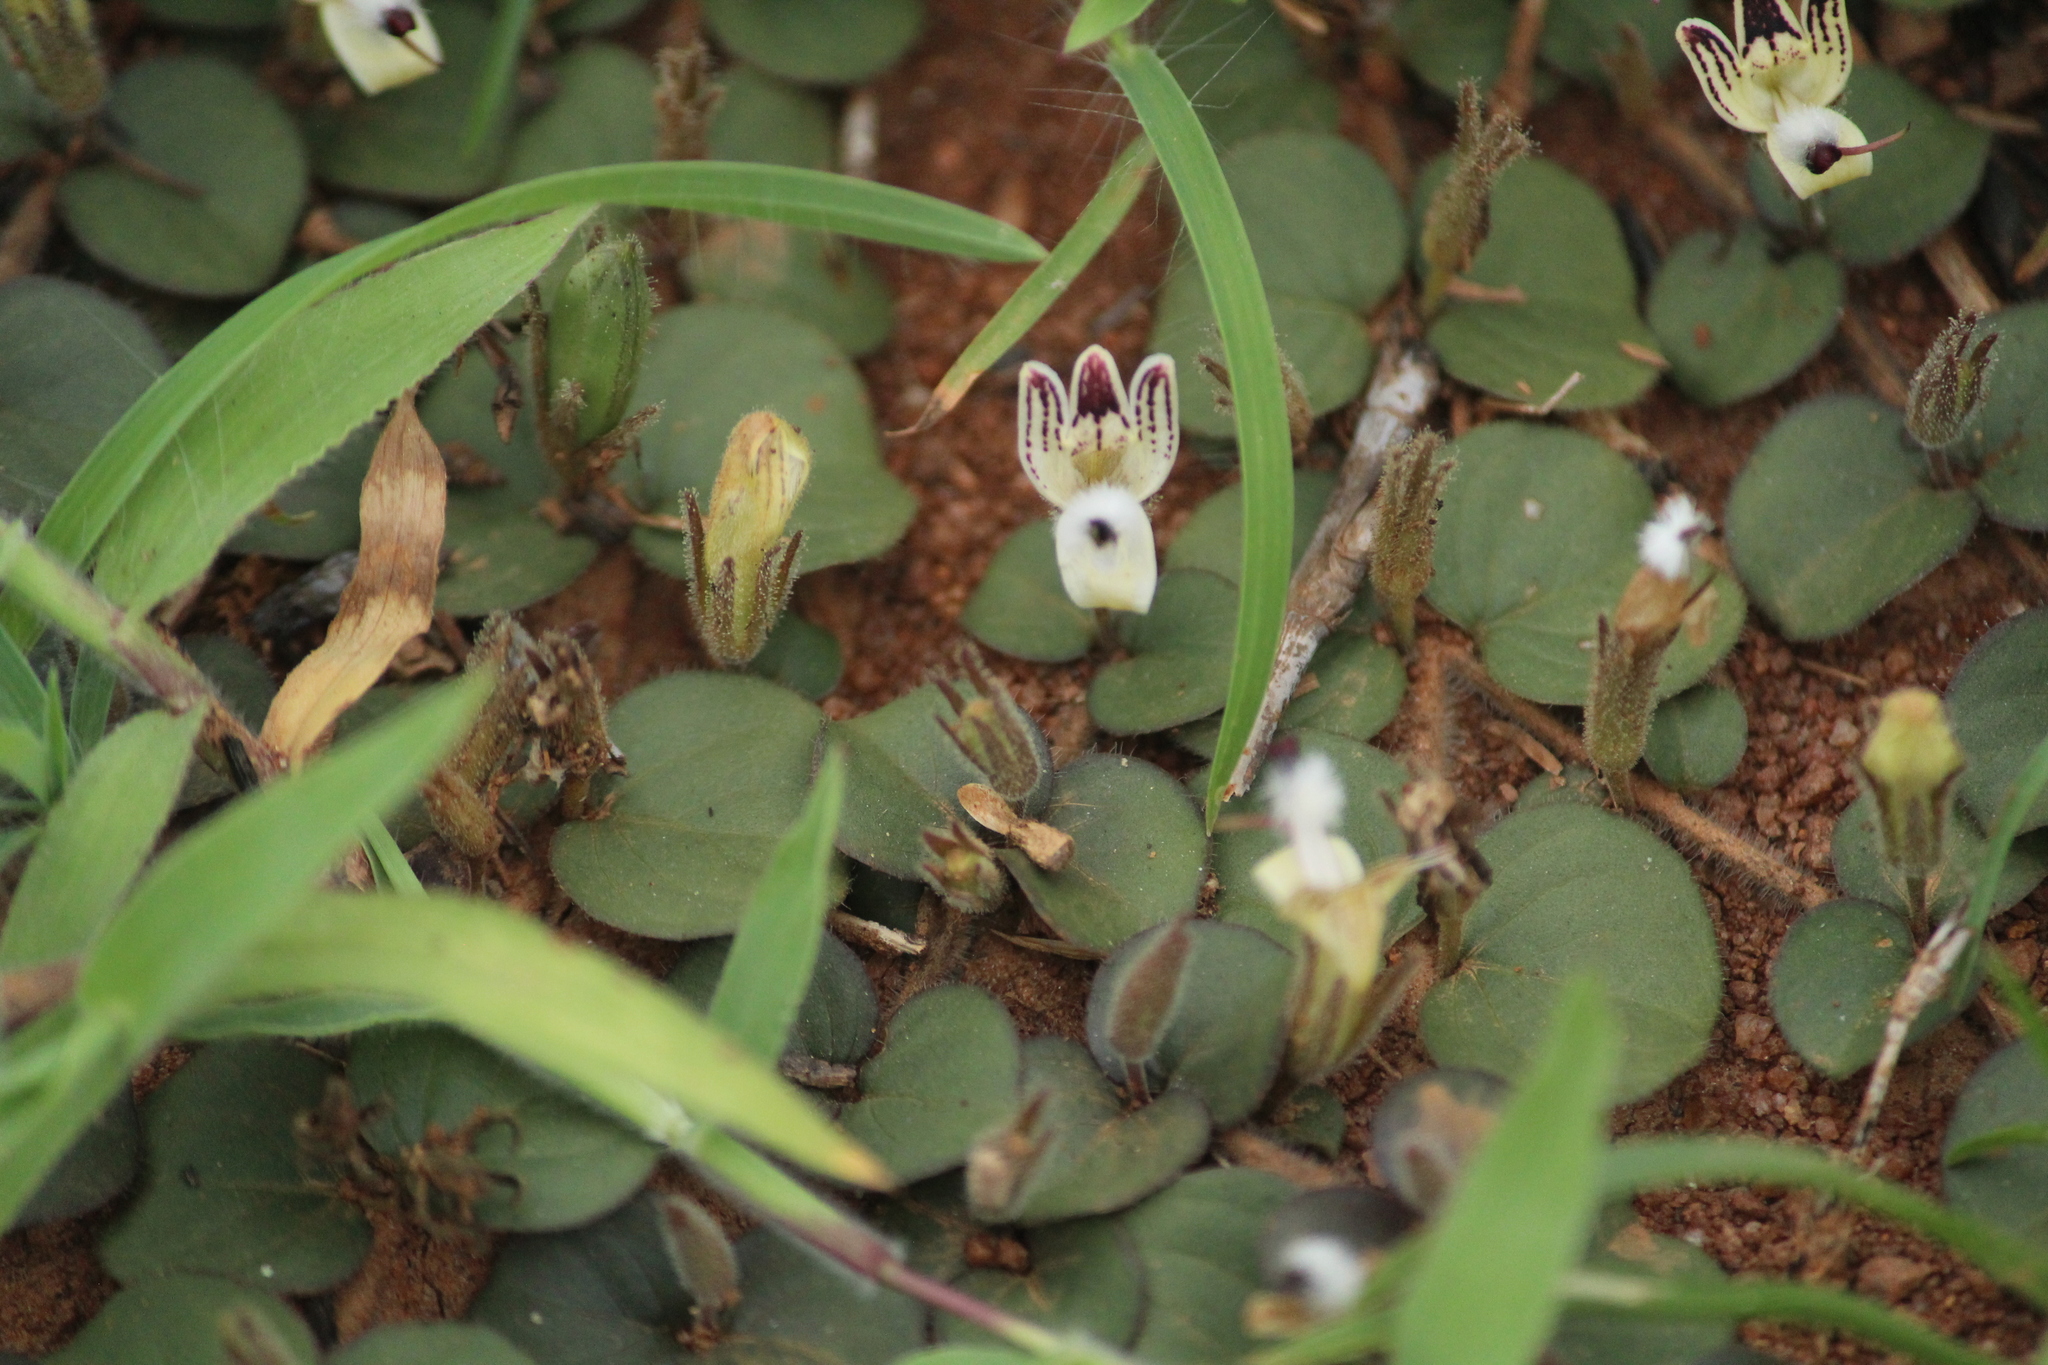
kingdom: Plantae
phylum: Tracheophyta
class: Magnoliopsida
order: Lamiales
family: Acanthaceae
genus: Andrographis
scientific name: Andrographis serpyllifolia
